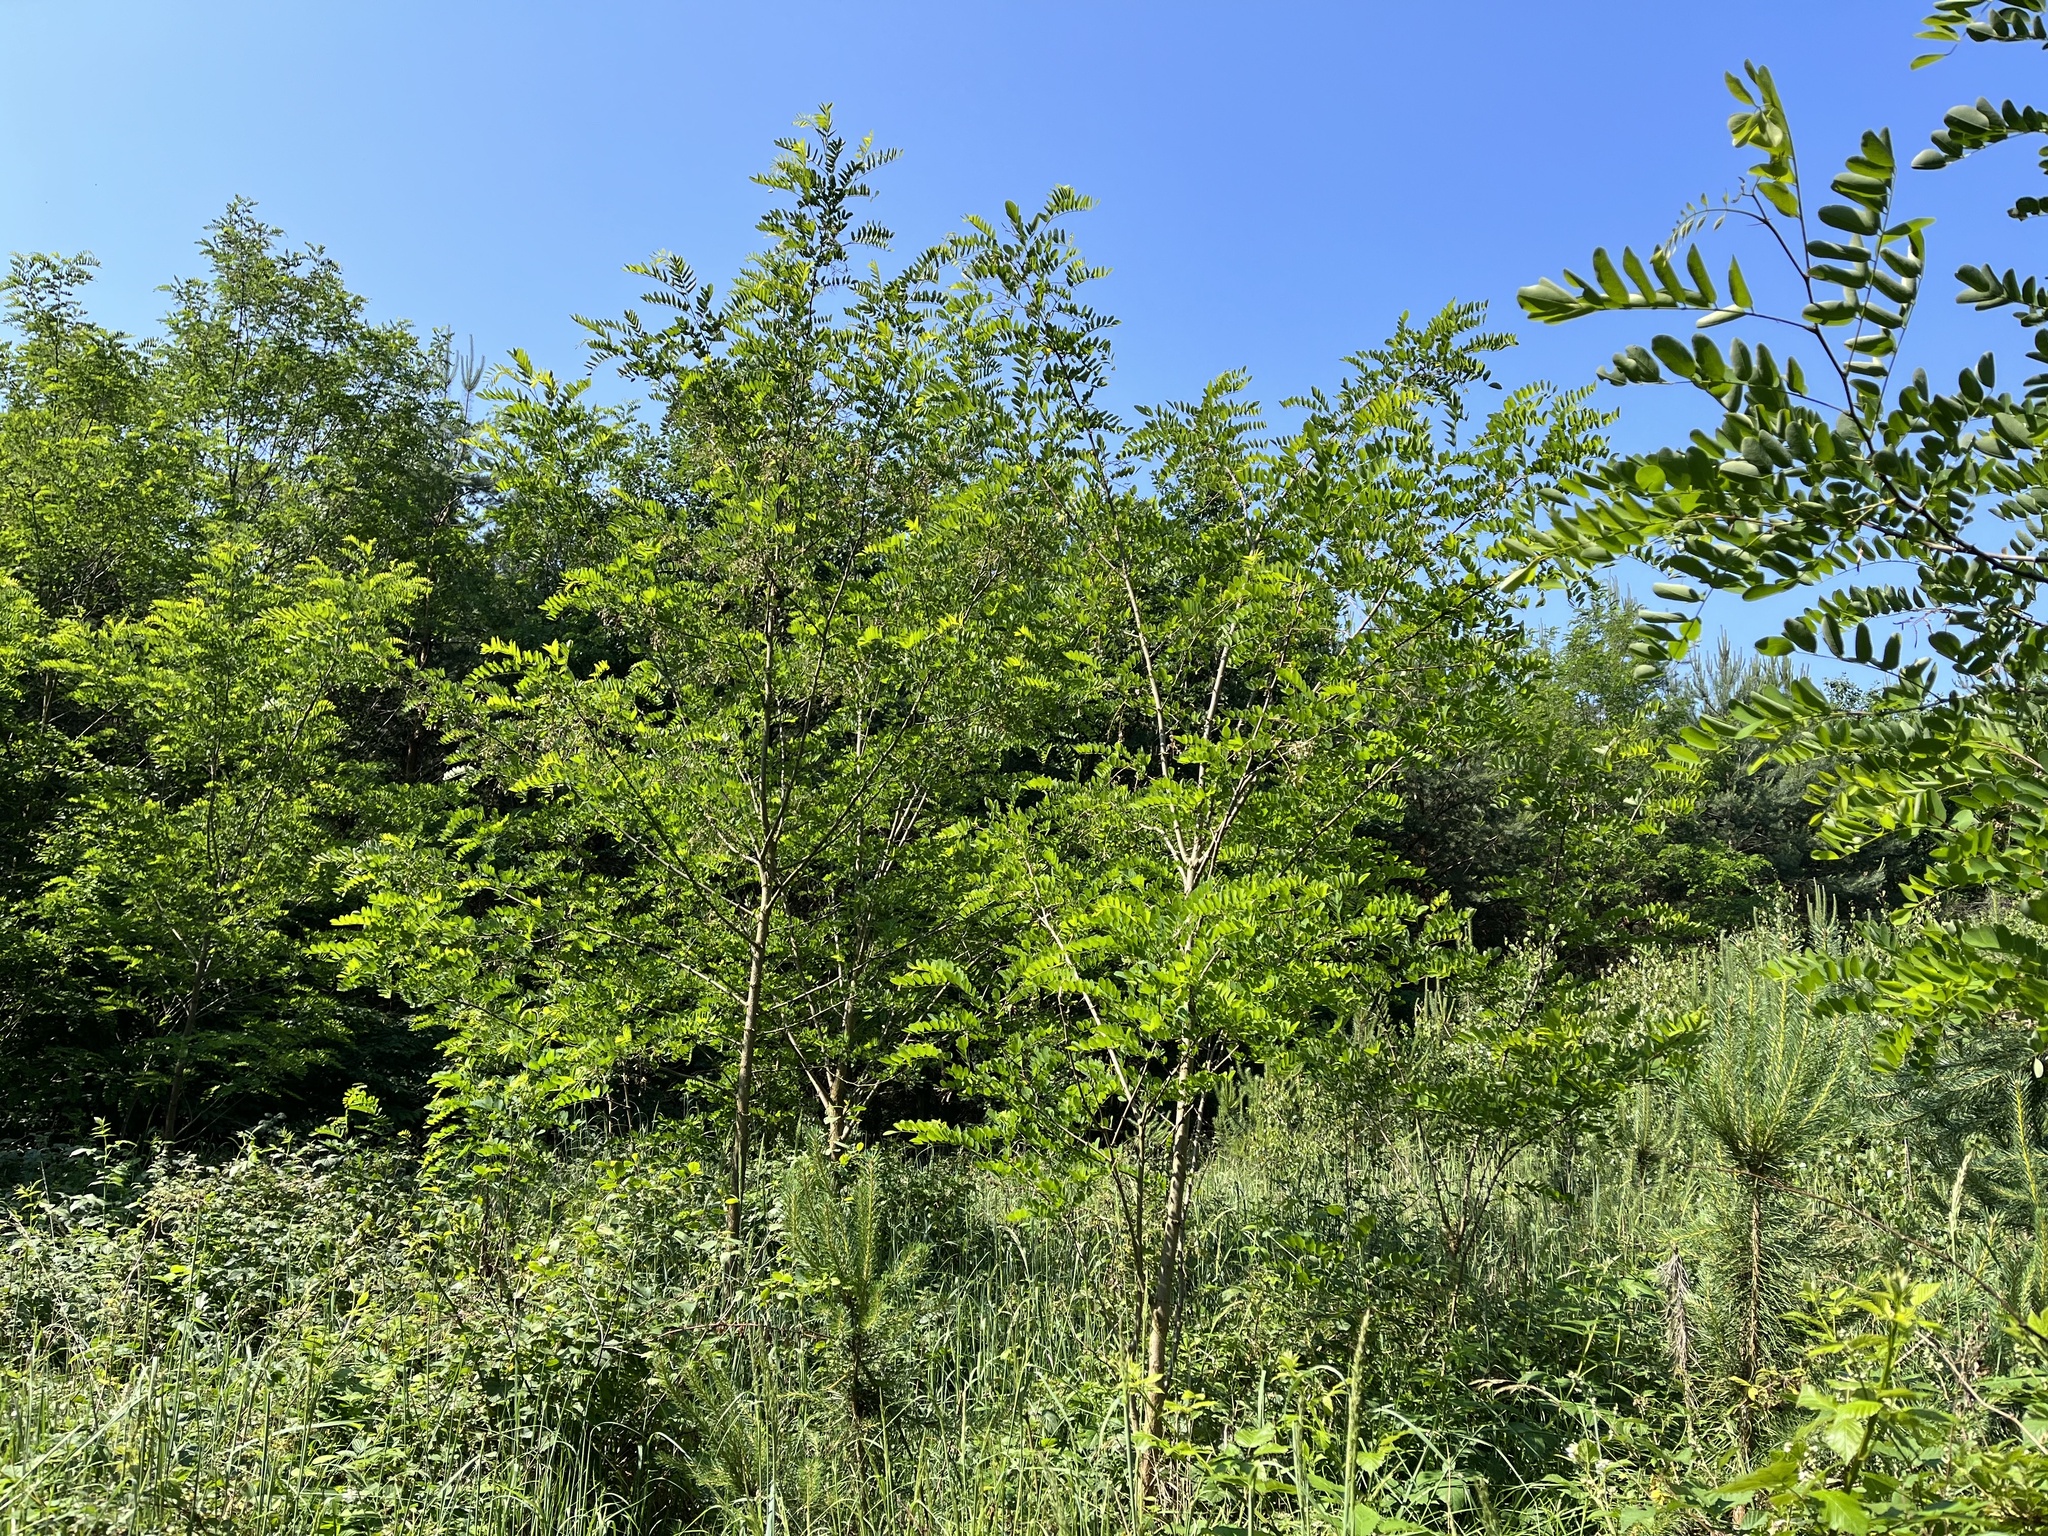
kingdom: Plantae
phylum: Tracheophyta
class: Magnoliopsida
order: Fabales
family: Fabaceae
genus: Robinia
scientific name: Robinia pseudoacacia
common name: Black locust
